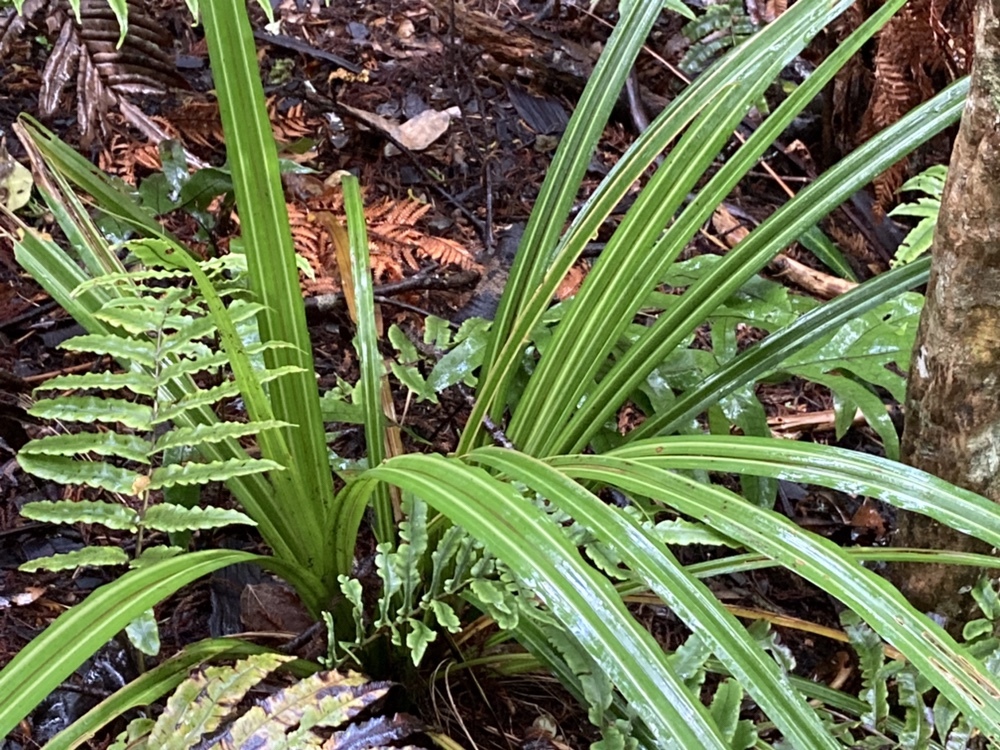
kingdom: Plantae
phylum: Tracheophyta
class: Liliopsida
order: Asparagales
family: Asteliaceae
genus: Astelia
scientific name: Astelia fragrans
